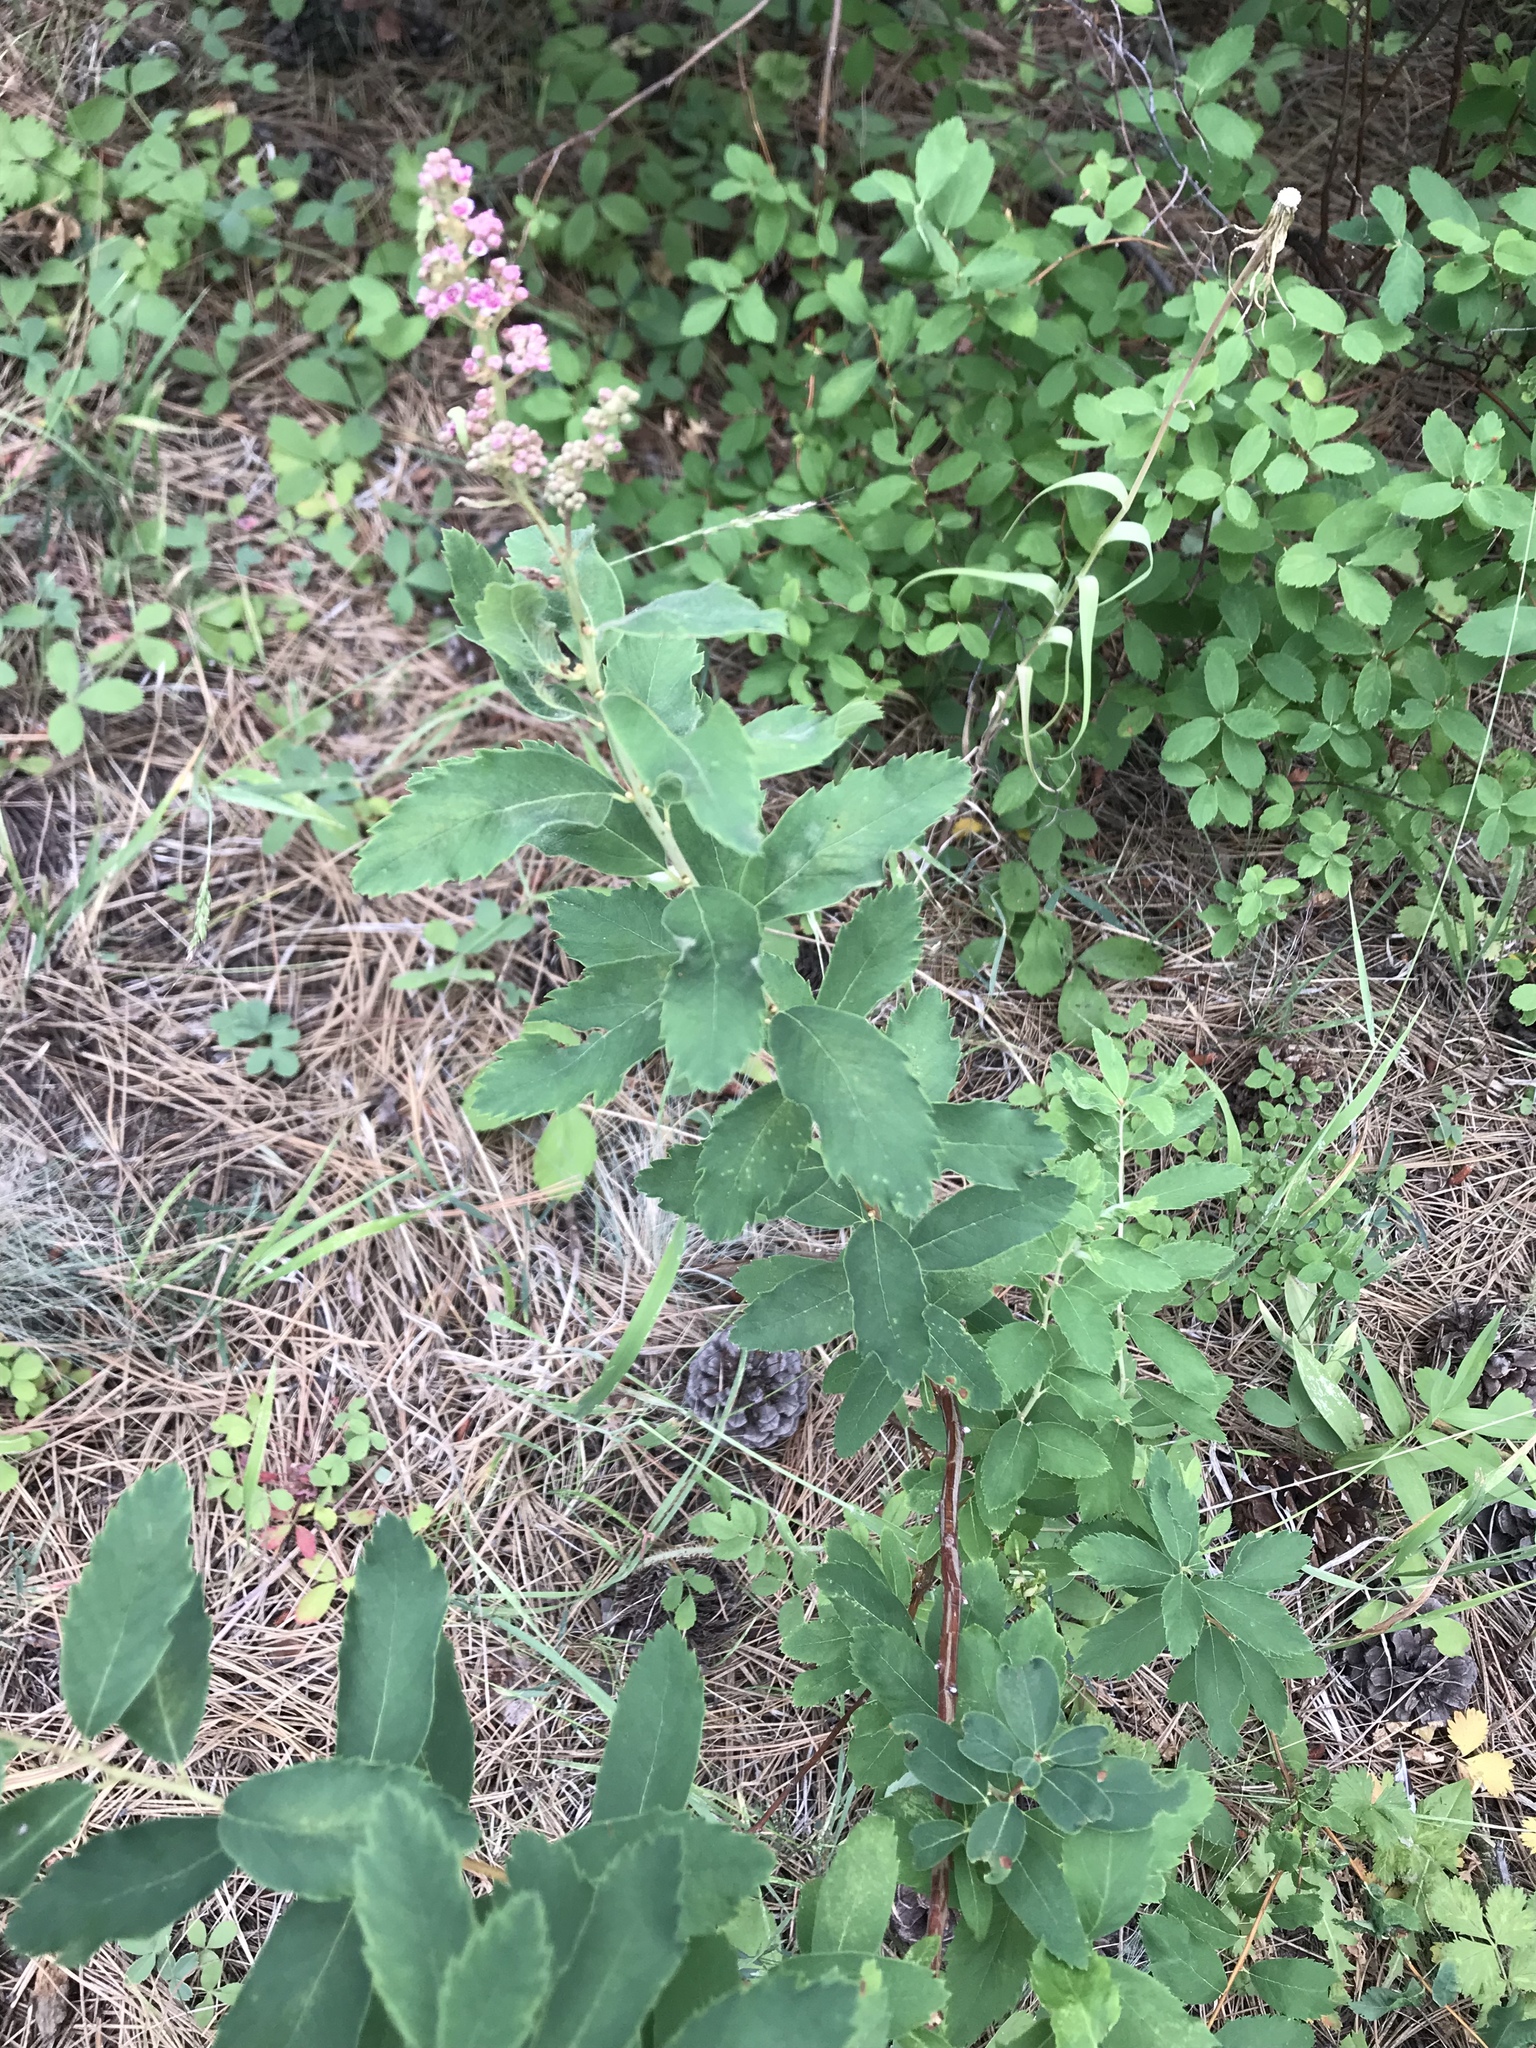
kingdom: Plantae
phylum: Tracheophyta
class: Magnoliopsida
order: Rosales
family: Rosaceae
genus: Spiraea
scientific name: Spiraea douglasii
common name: Steeplebush
